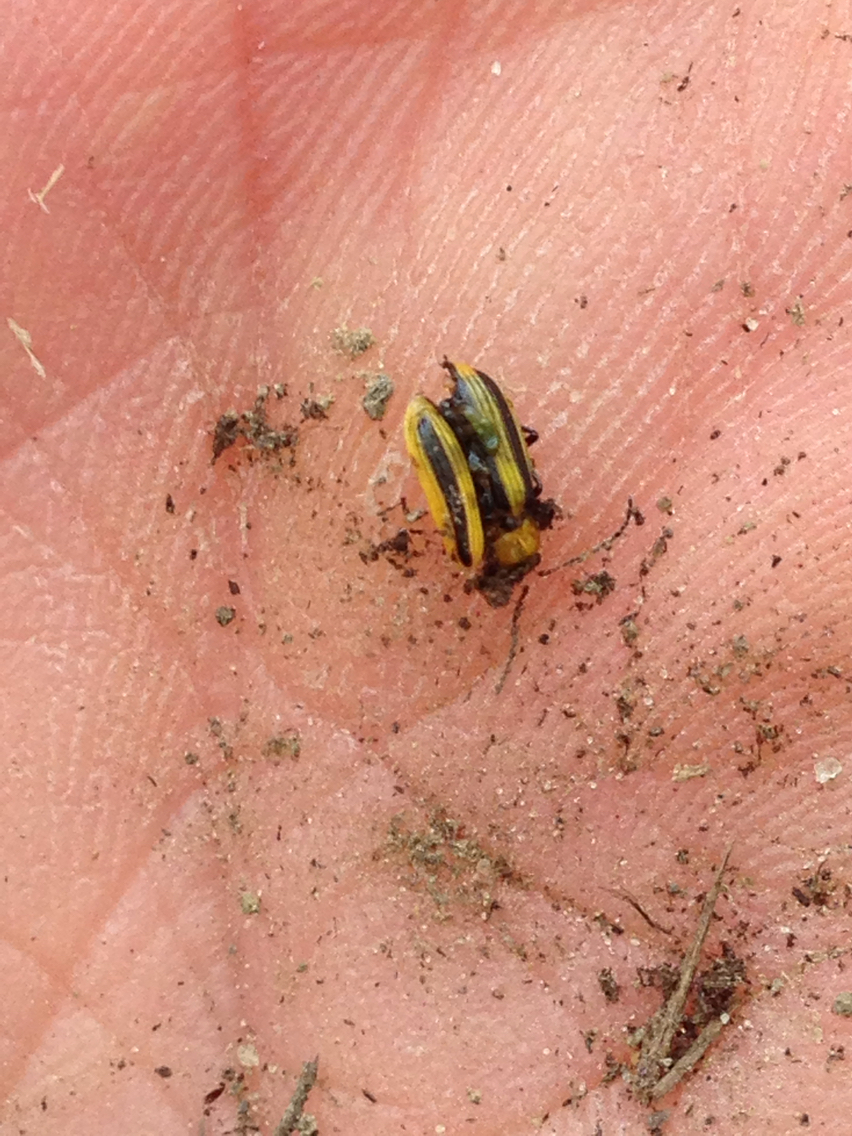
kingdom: Animalia
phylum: Arthropoda
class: Insecta
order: Coleoptera
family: Chrysomelidae
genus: Acalymma
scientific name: Acalymma vittatum
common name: Striped cucumber beetle
